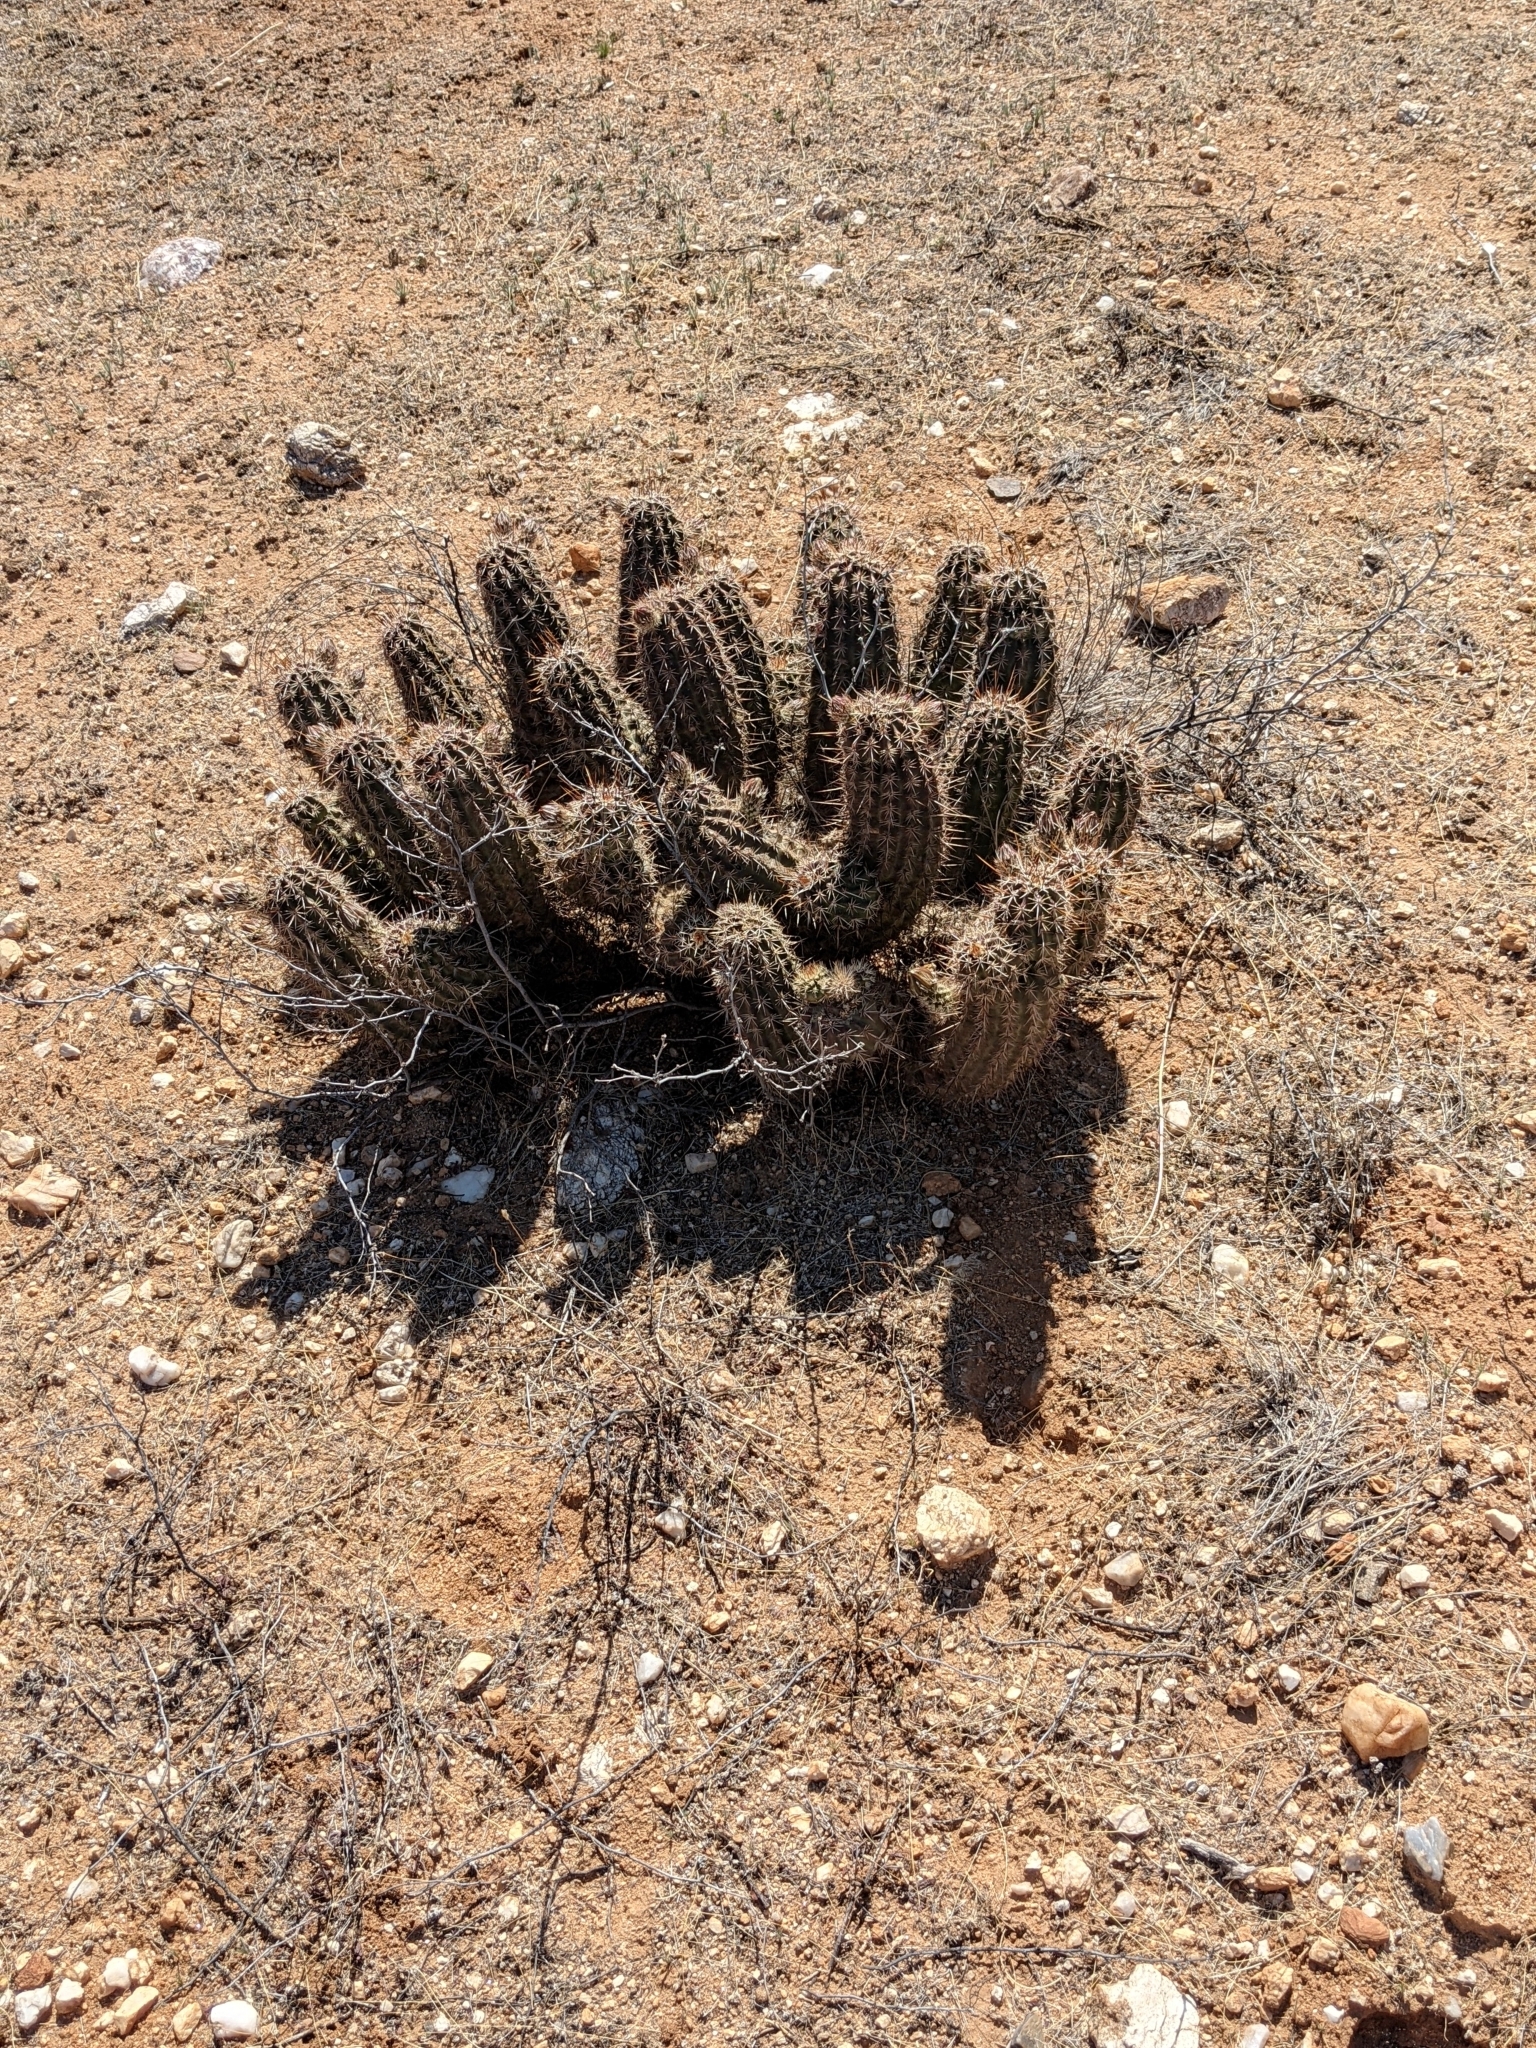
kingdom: Plantae
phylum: Tracheophyta
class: Magnoliopsida
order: Caryophyllales
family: Cactaceae
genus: Echinocereus
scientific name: Echinocereus fasciculatus
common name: Bundle hedgehog
